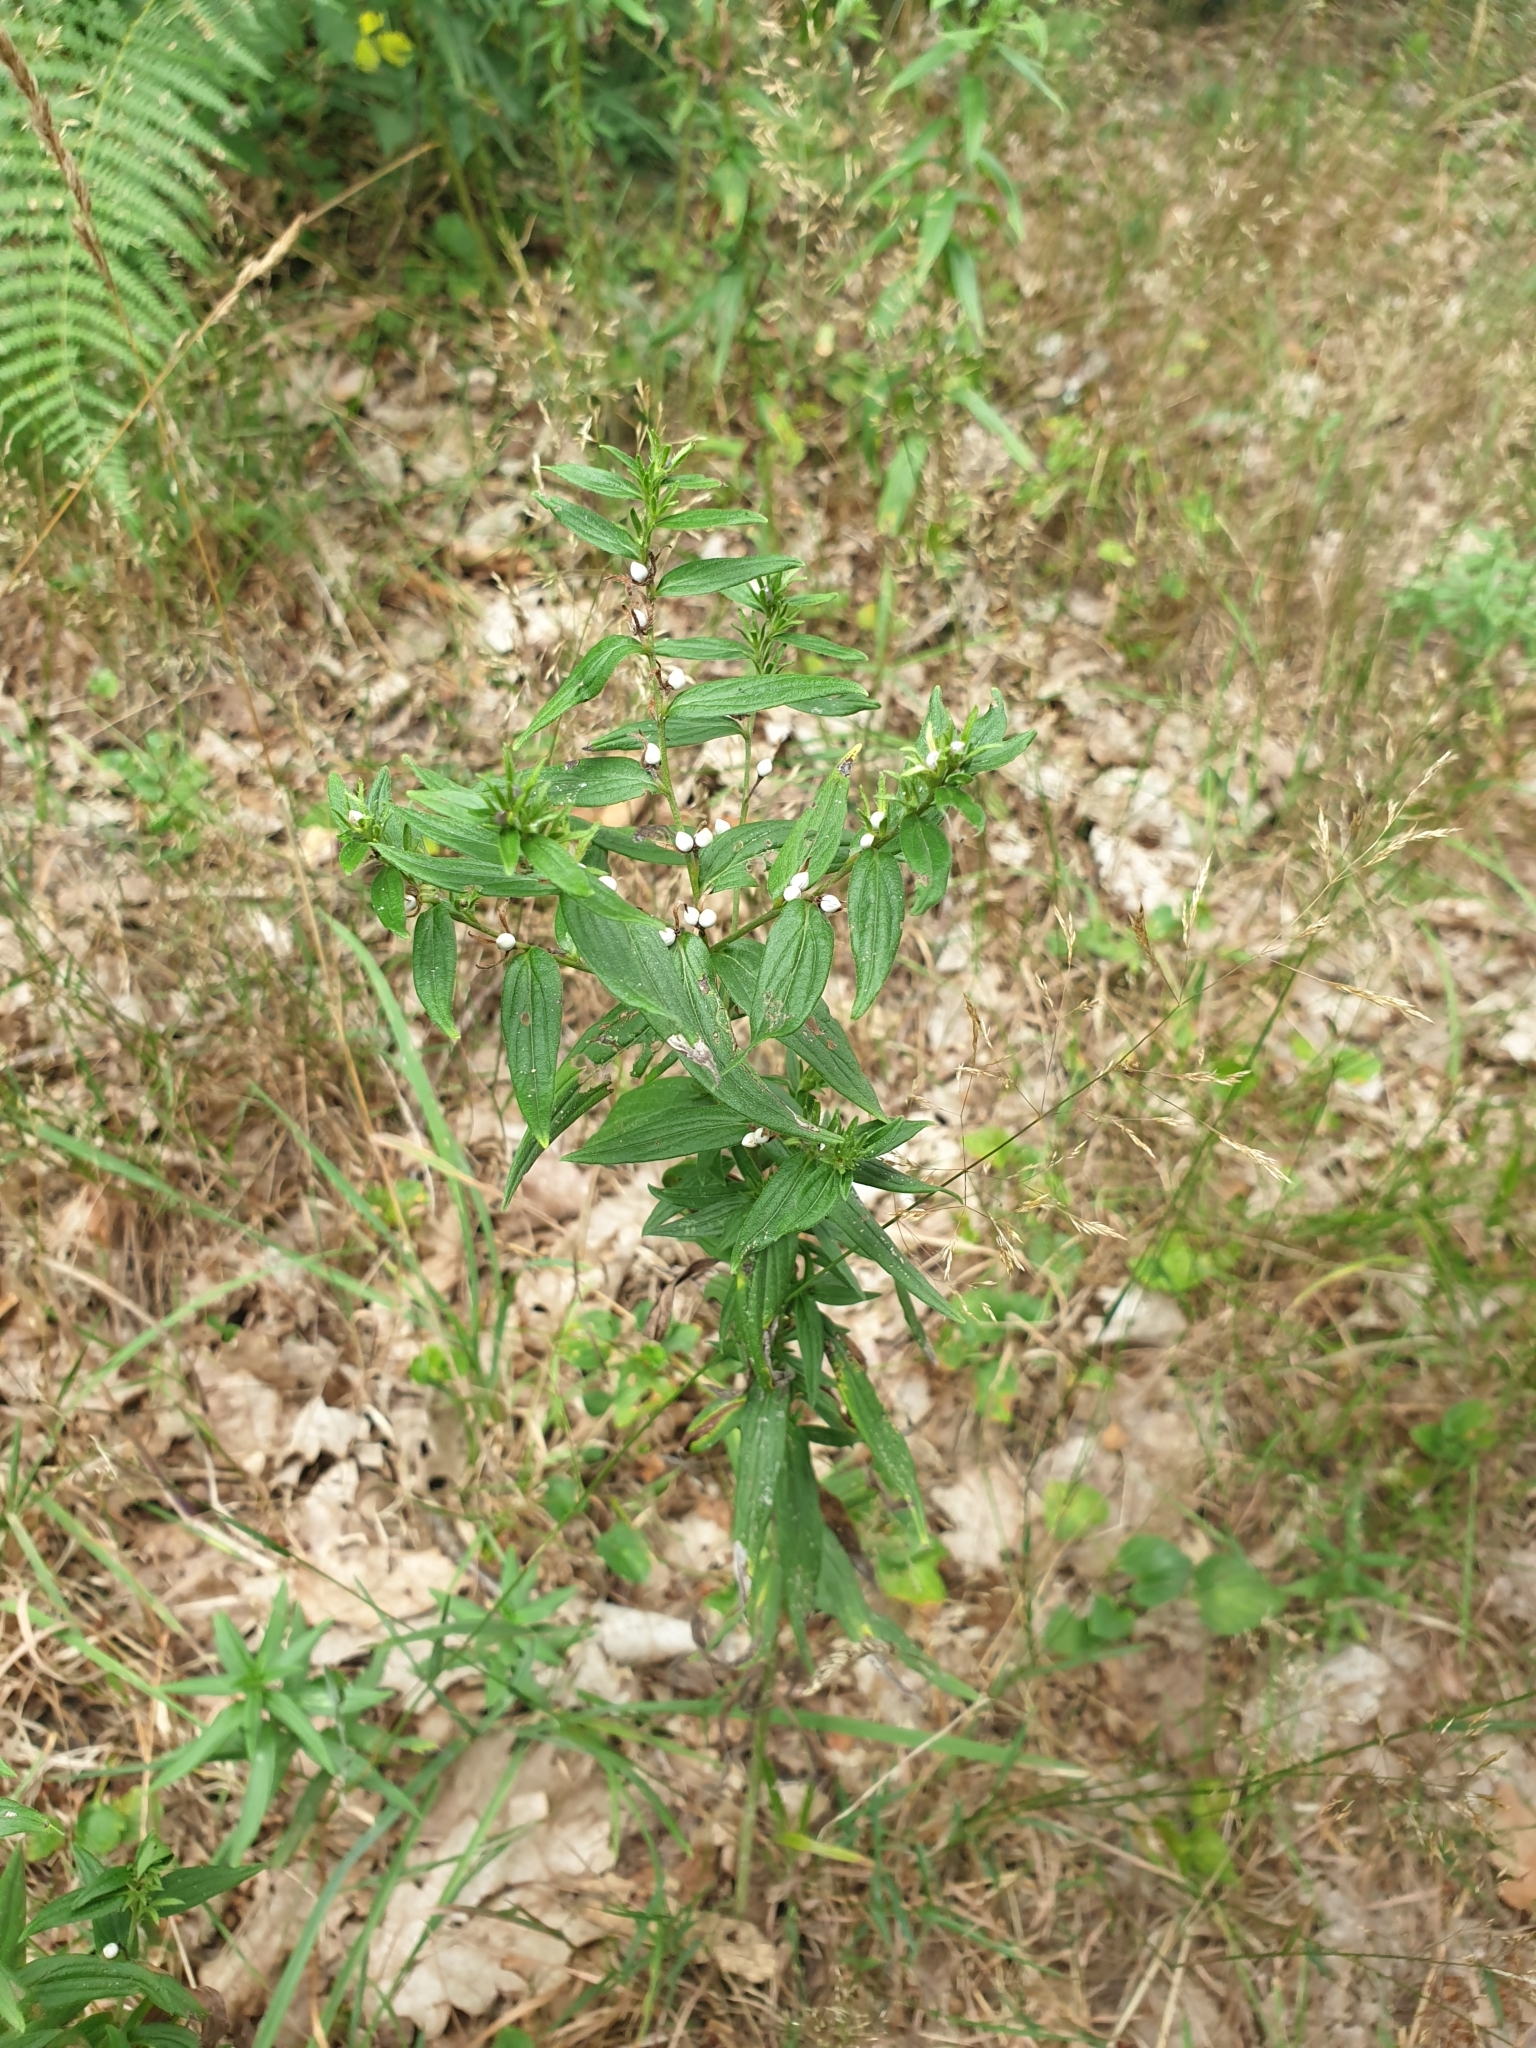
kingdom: Plantae
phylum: Tracheophyta
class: Magnoliopsida
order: Boraginales
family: Boraginaceae
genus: Lithospermum
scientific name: Lithospermum officinale
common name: Common gromwell
